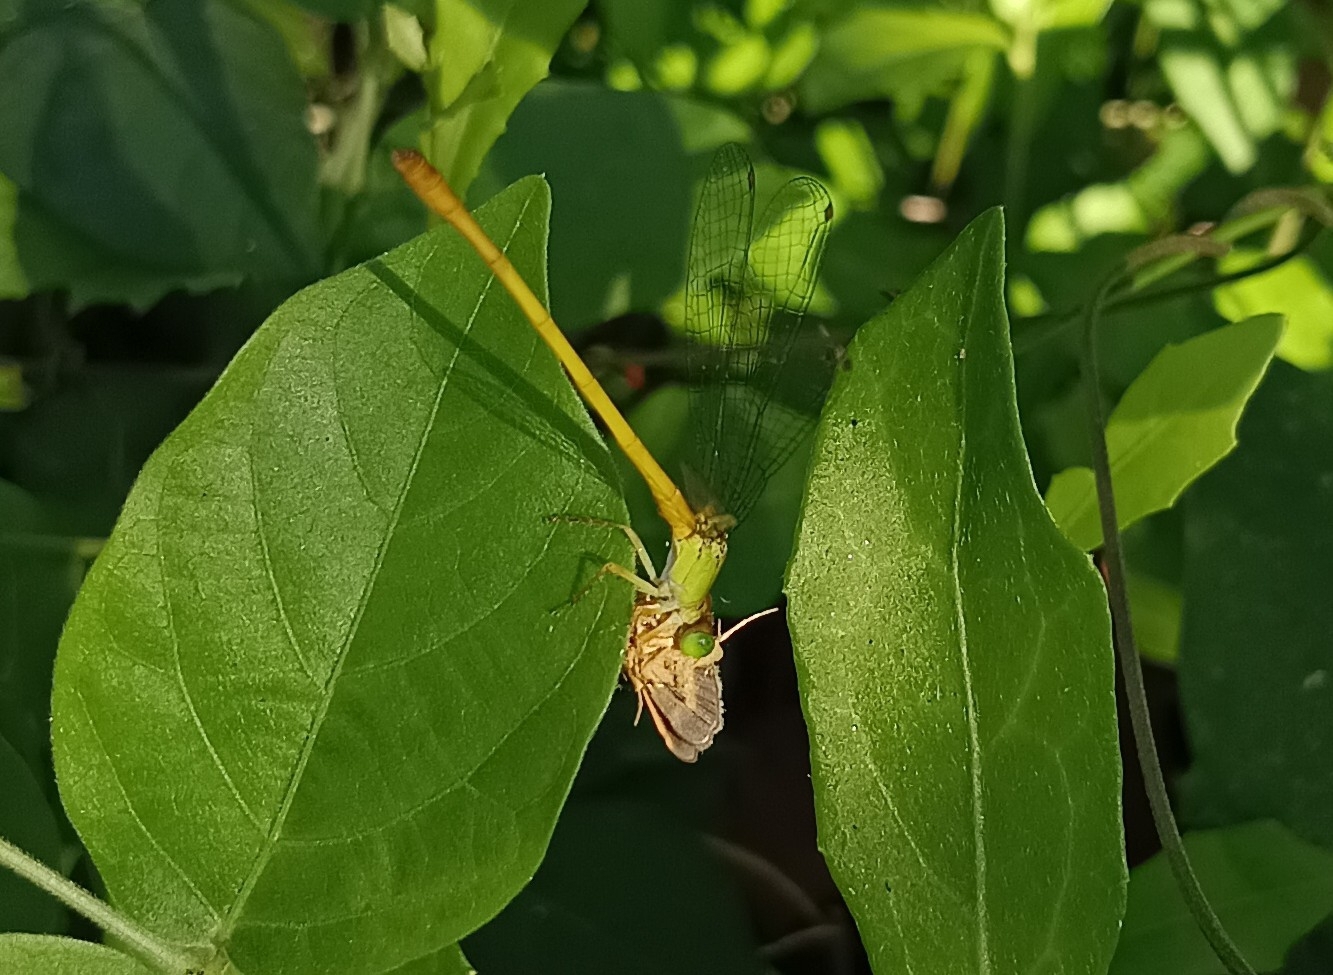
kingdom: Animalia
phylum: Arthropoda
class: Insecta
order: Odonata
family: Coenagrionidae
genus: Ceriagrion
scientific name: Ceriagrion coromandelianum
